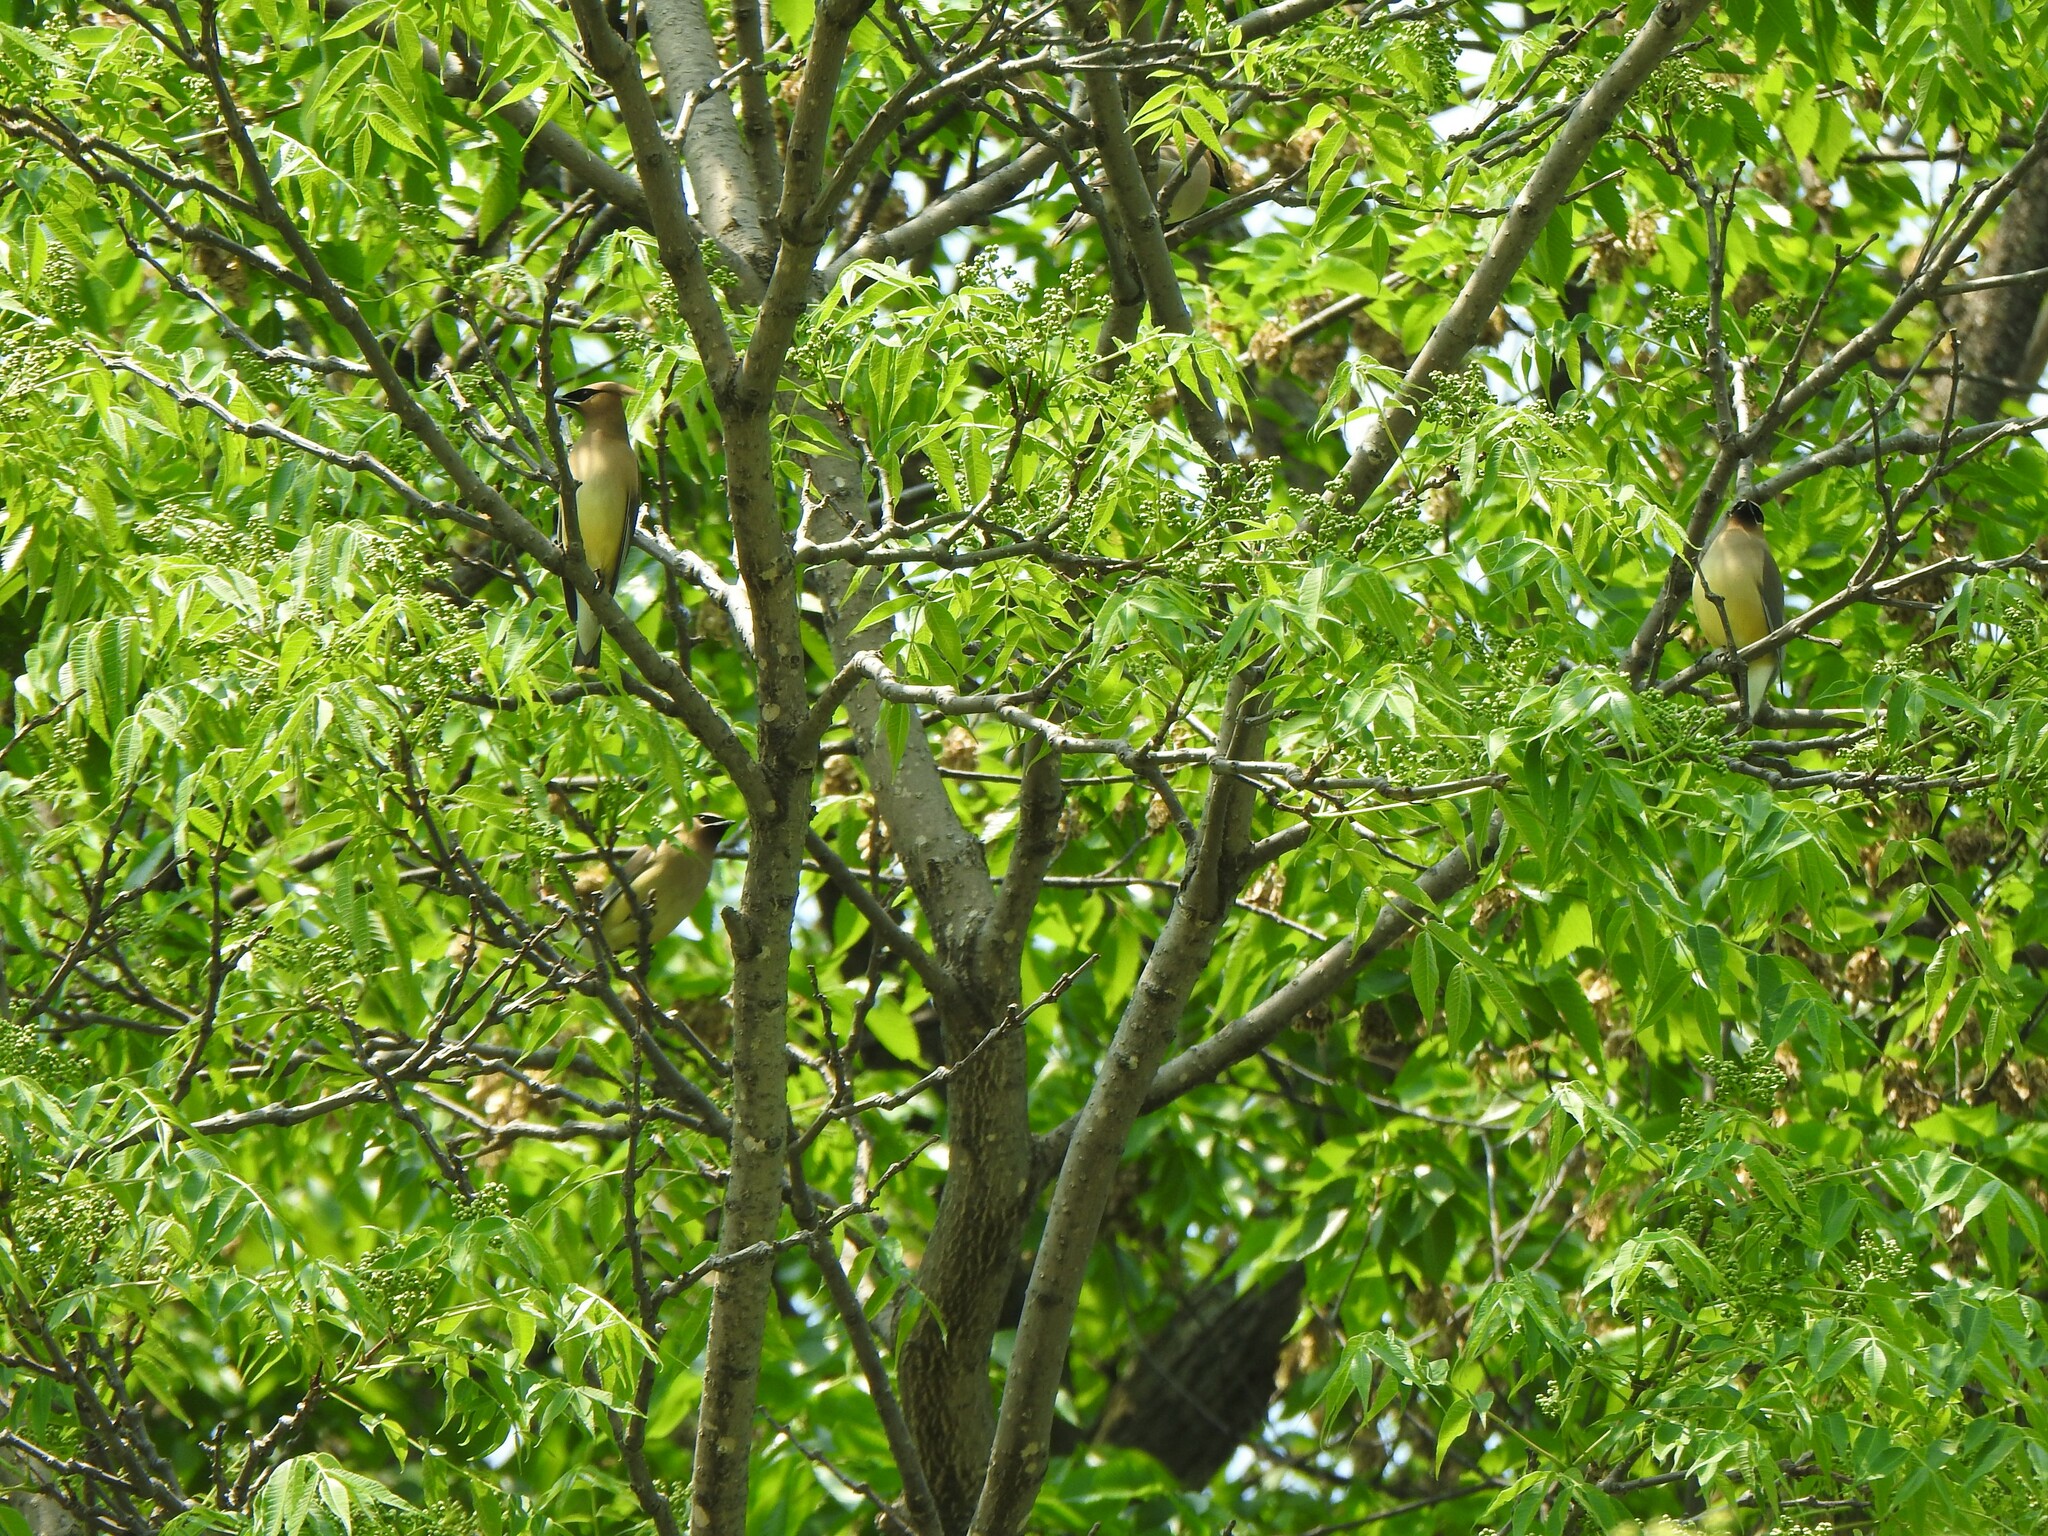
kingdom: Animalia
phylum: Chordata
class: Aves
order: Passeriformes
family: Bombycillidae
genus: Bombycilla
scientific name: Bombycilla cedrorum
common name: Cedar waxwing
